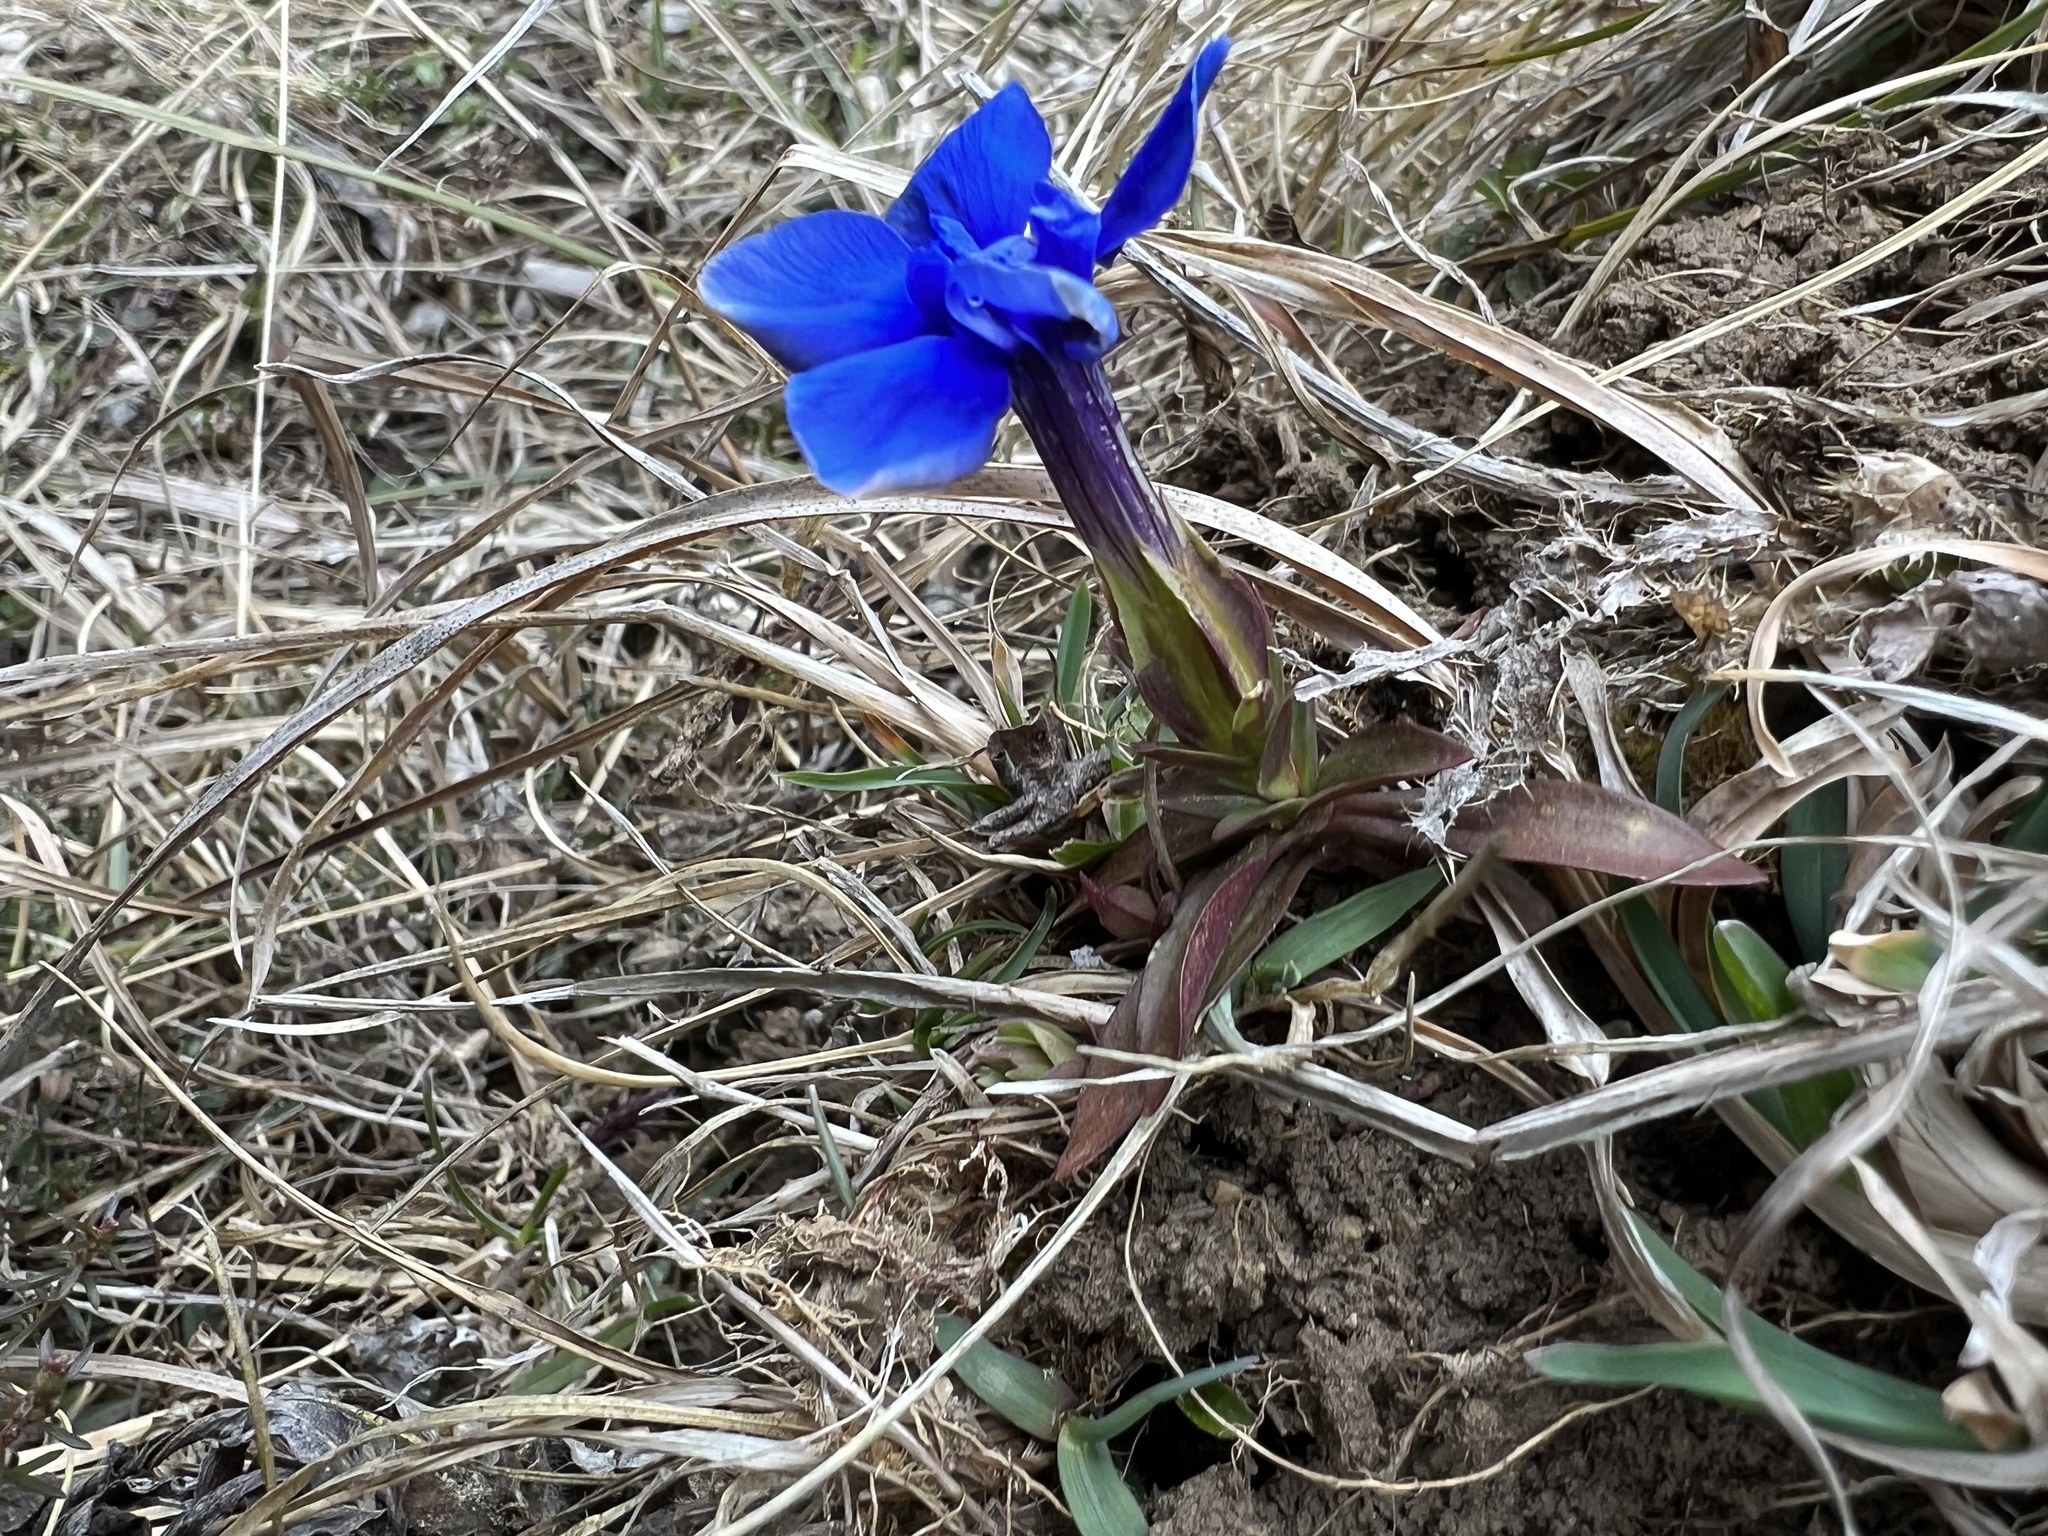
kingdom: Plantae
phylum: Tracheophyta
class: Magnoliopsida
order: Gentianales
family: Gentianaceae
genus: Gentiana
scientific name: Gentiana verna
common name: Spring gentian
